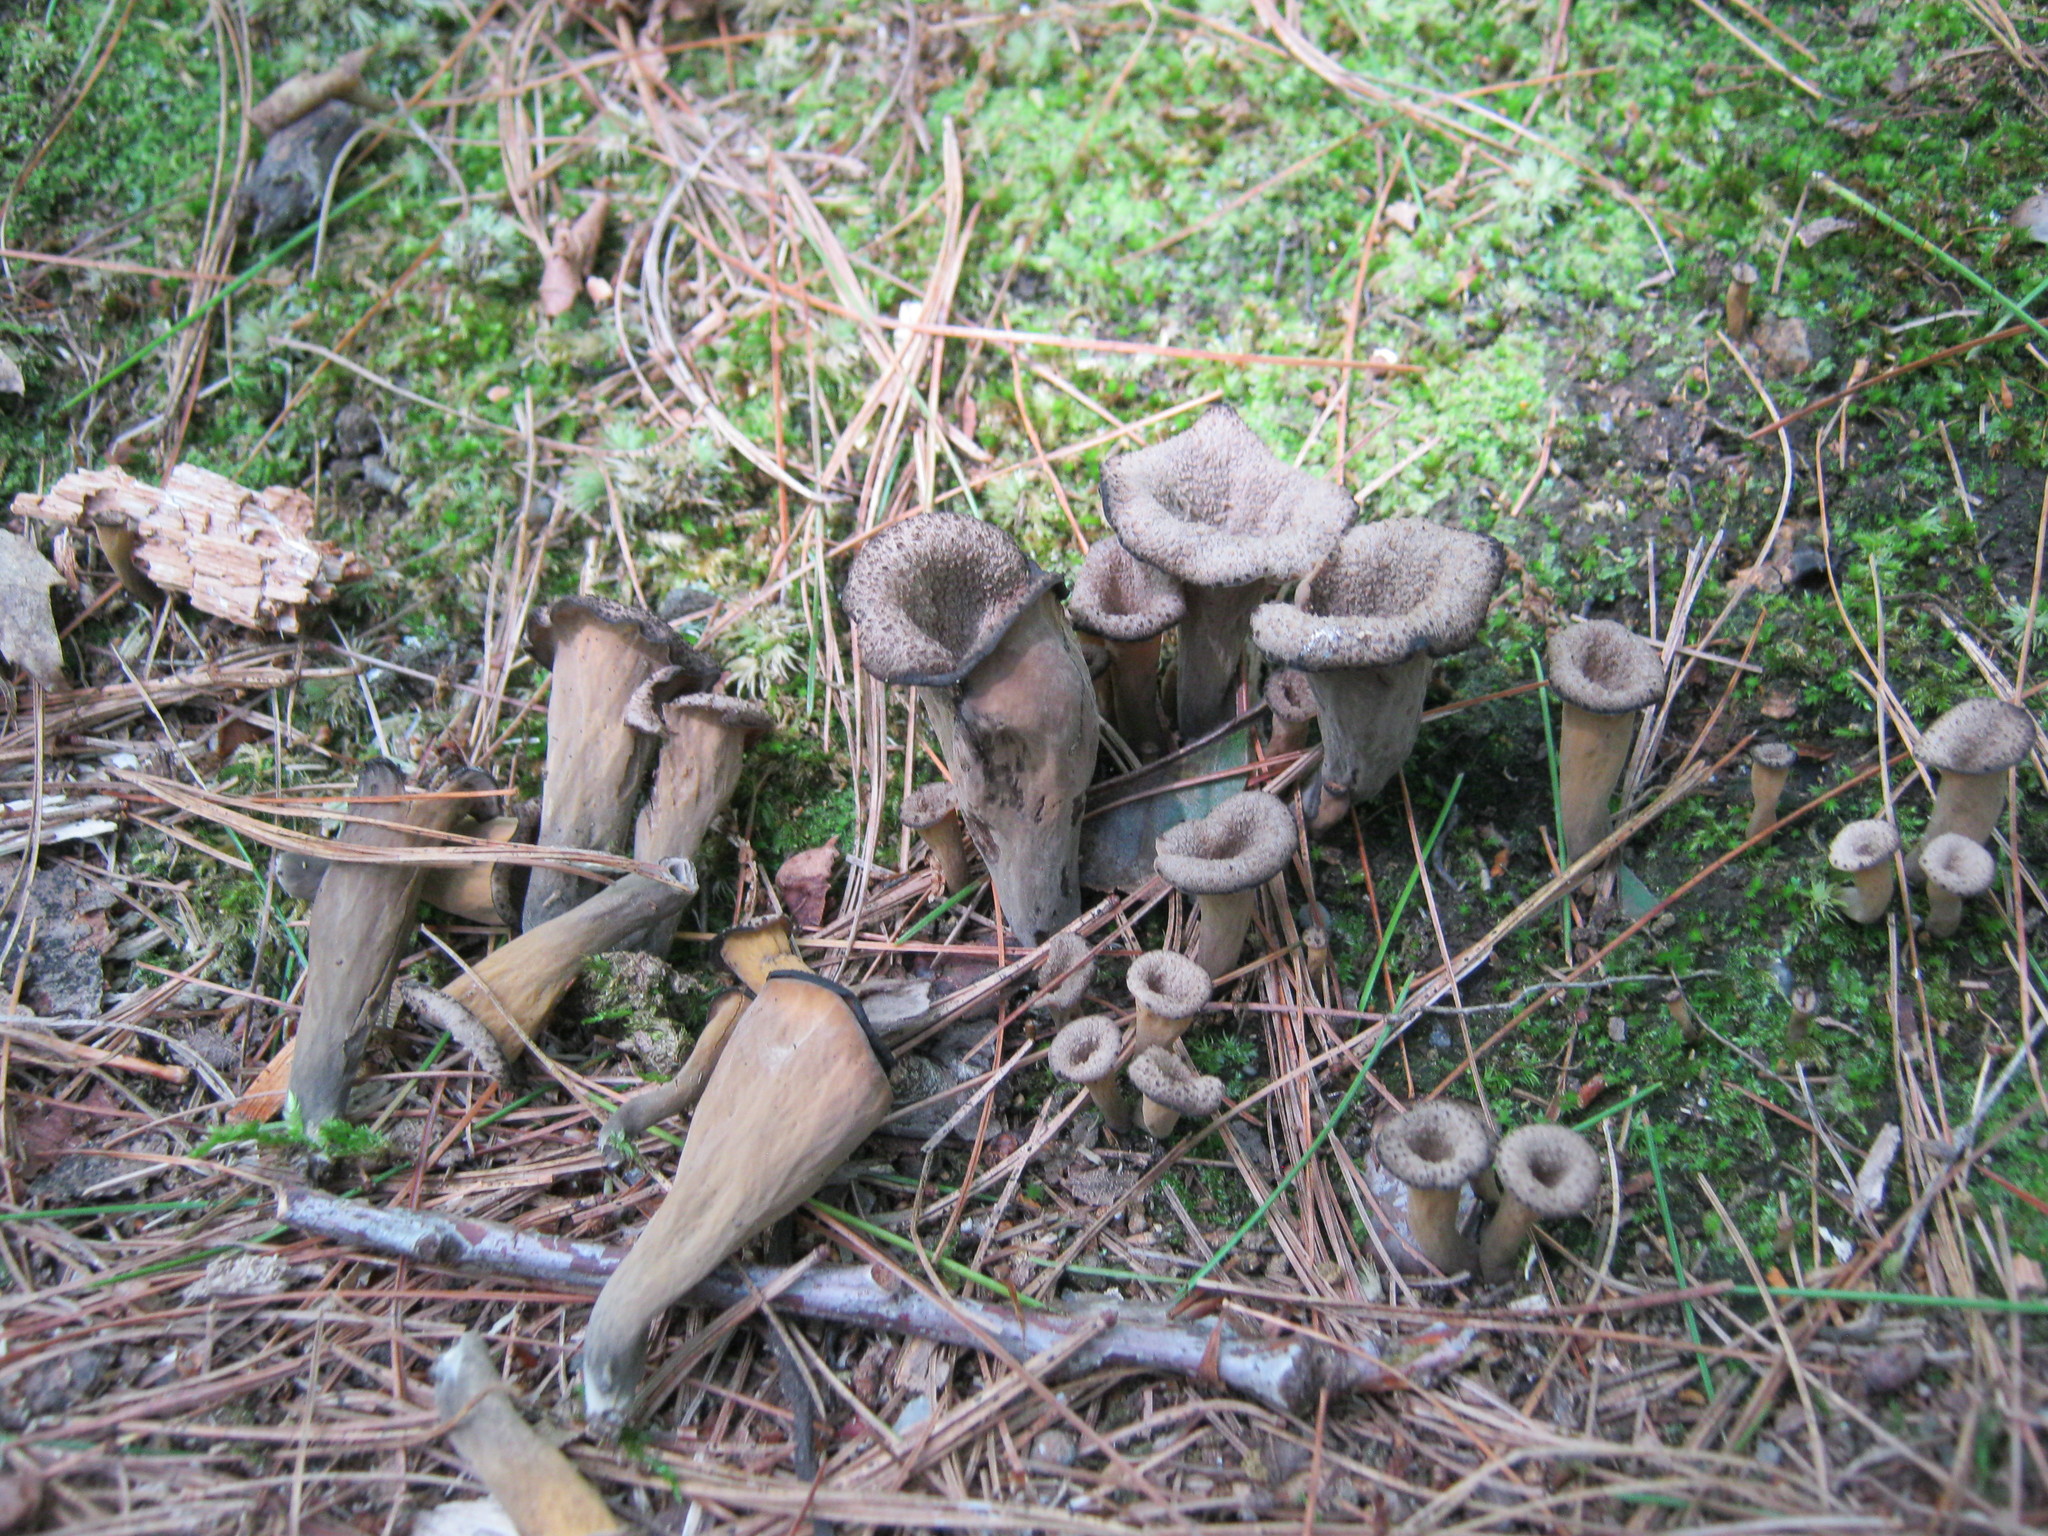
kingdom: Fungi
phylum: Basidiomycota
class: Agaricomycetes
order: Cantharellales
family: Hydnaceae
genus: Craterellus
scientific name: Craterellus cornucopioides
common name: Horn of plenty
